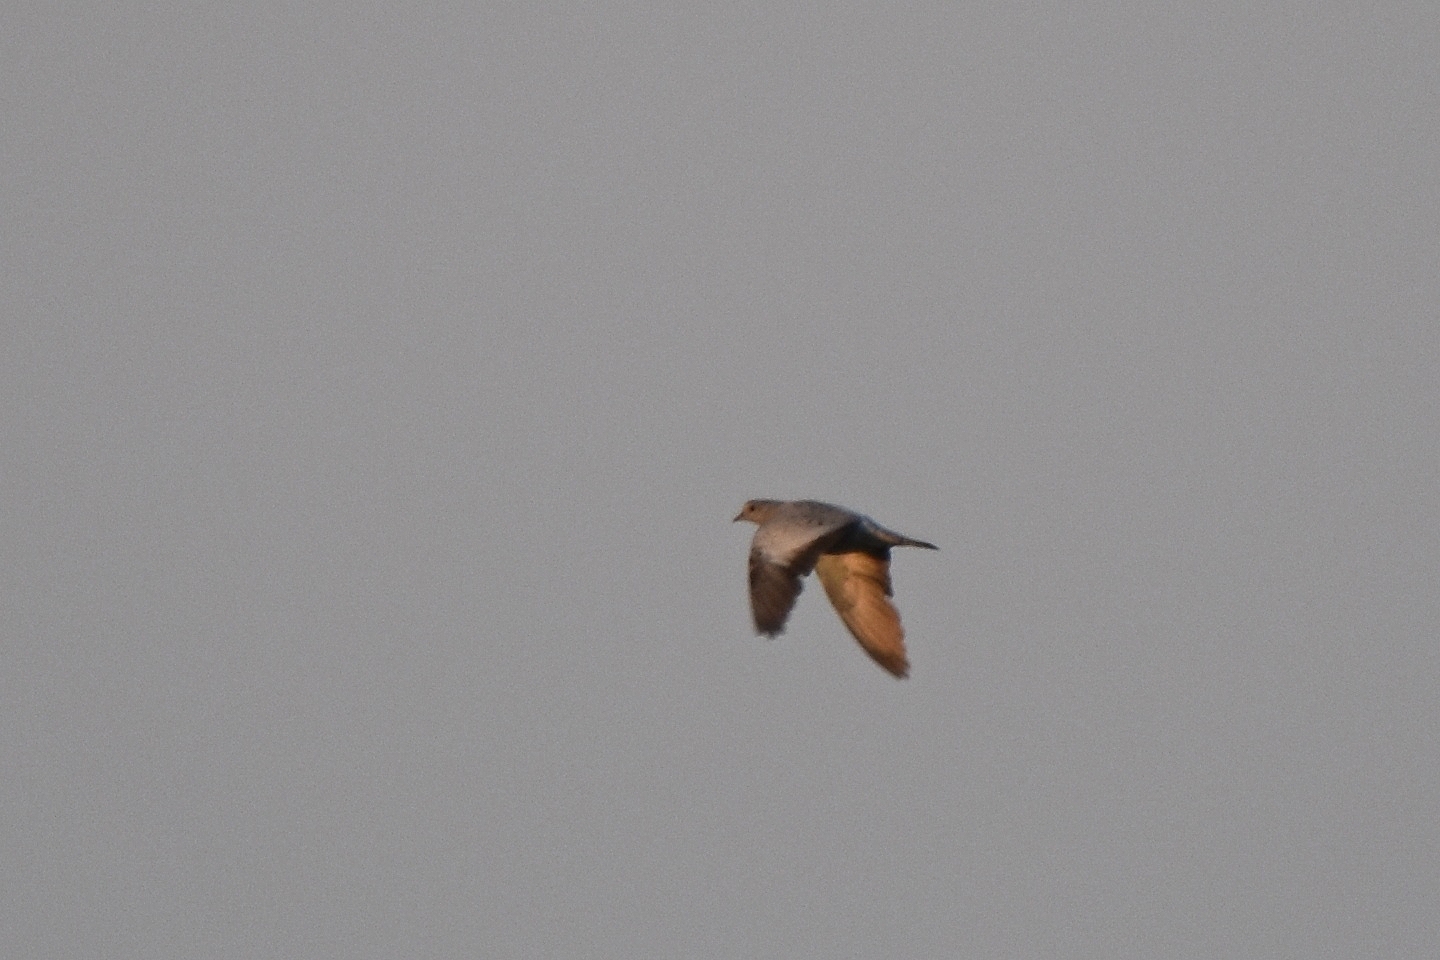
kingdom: Animalia
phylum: Chordata
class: Aves
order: Columbiformes
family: Columbidae
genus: Columba
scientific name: Columba oenas
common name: Stock dove
